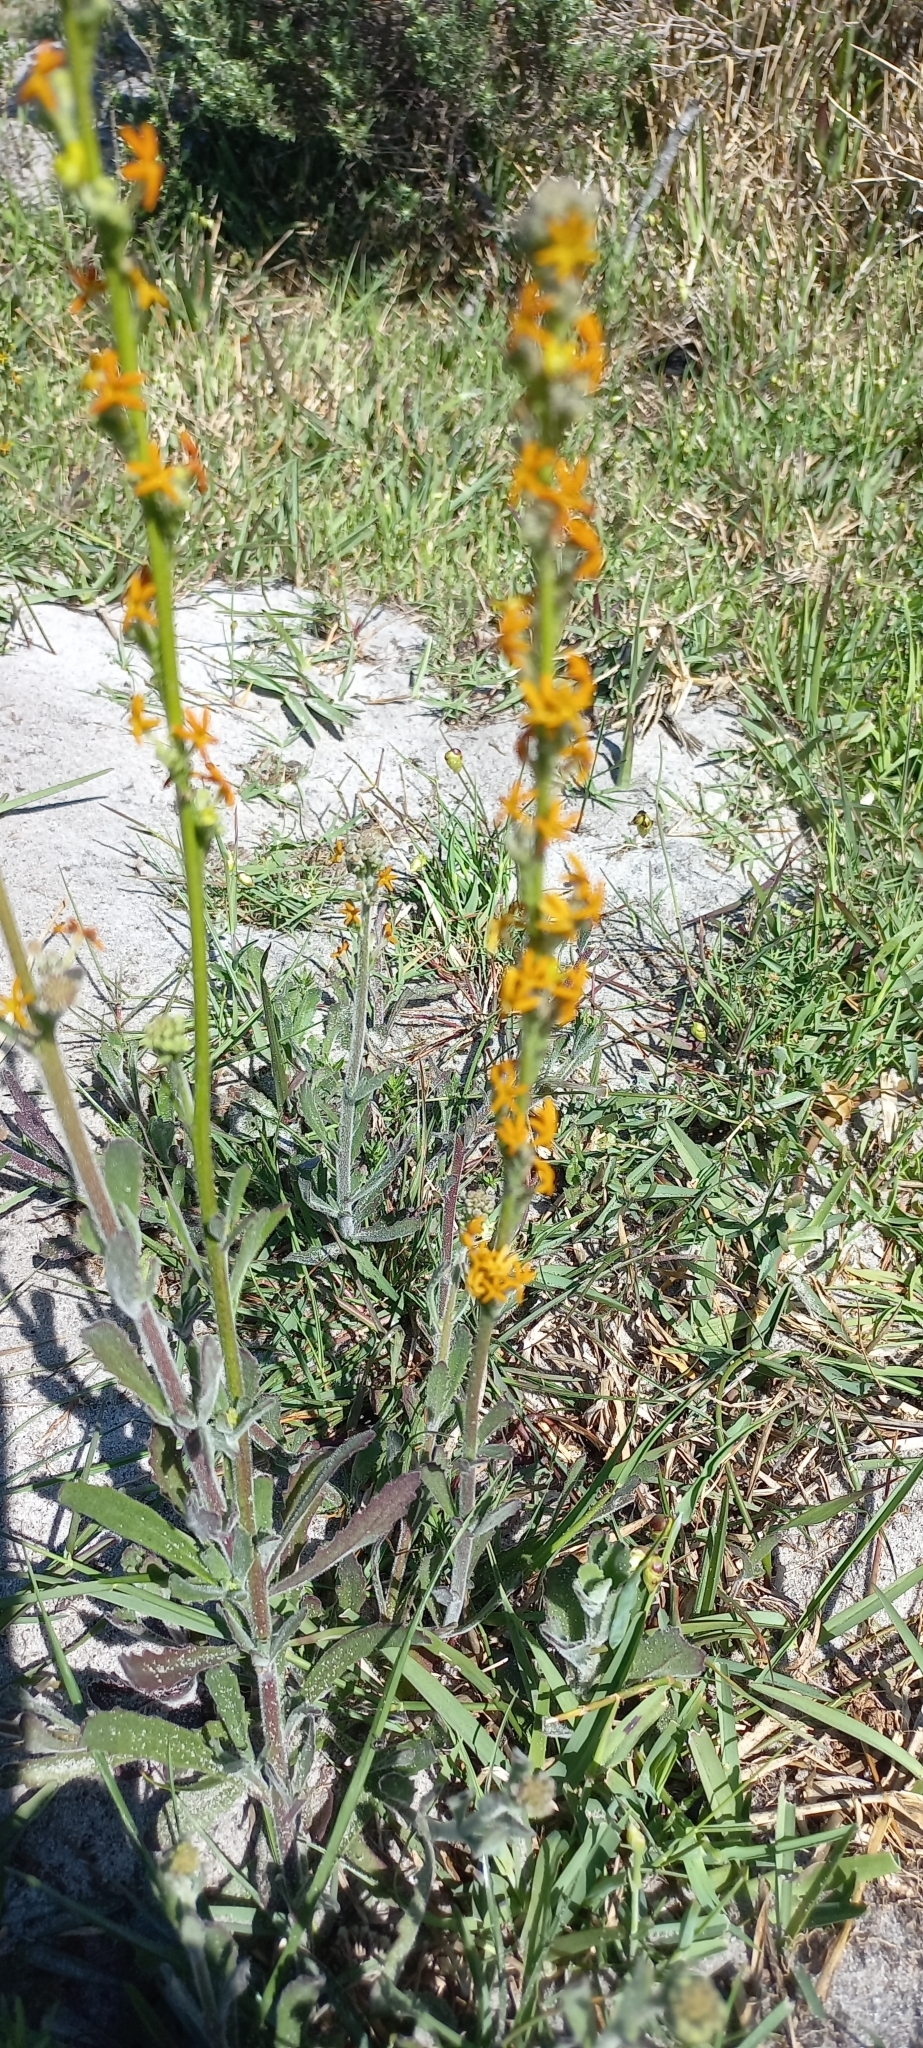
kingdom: Plantae
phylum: Tracheophyta
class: Magnoliopsida
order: Lamiales
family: Scrophulariaceae
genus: Manulea
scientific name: Manulea rubra
